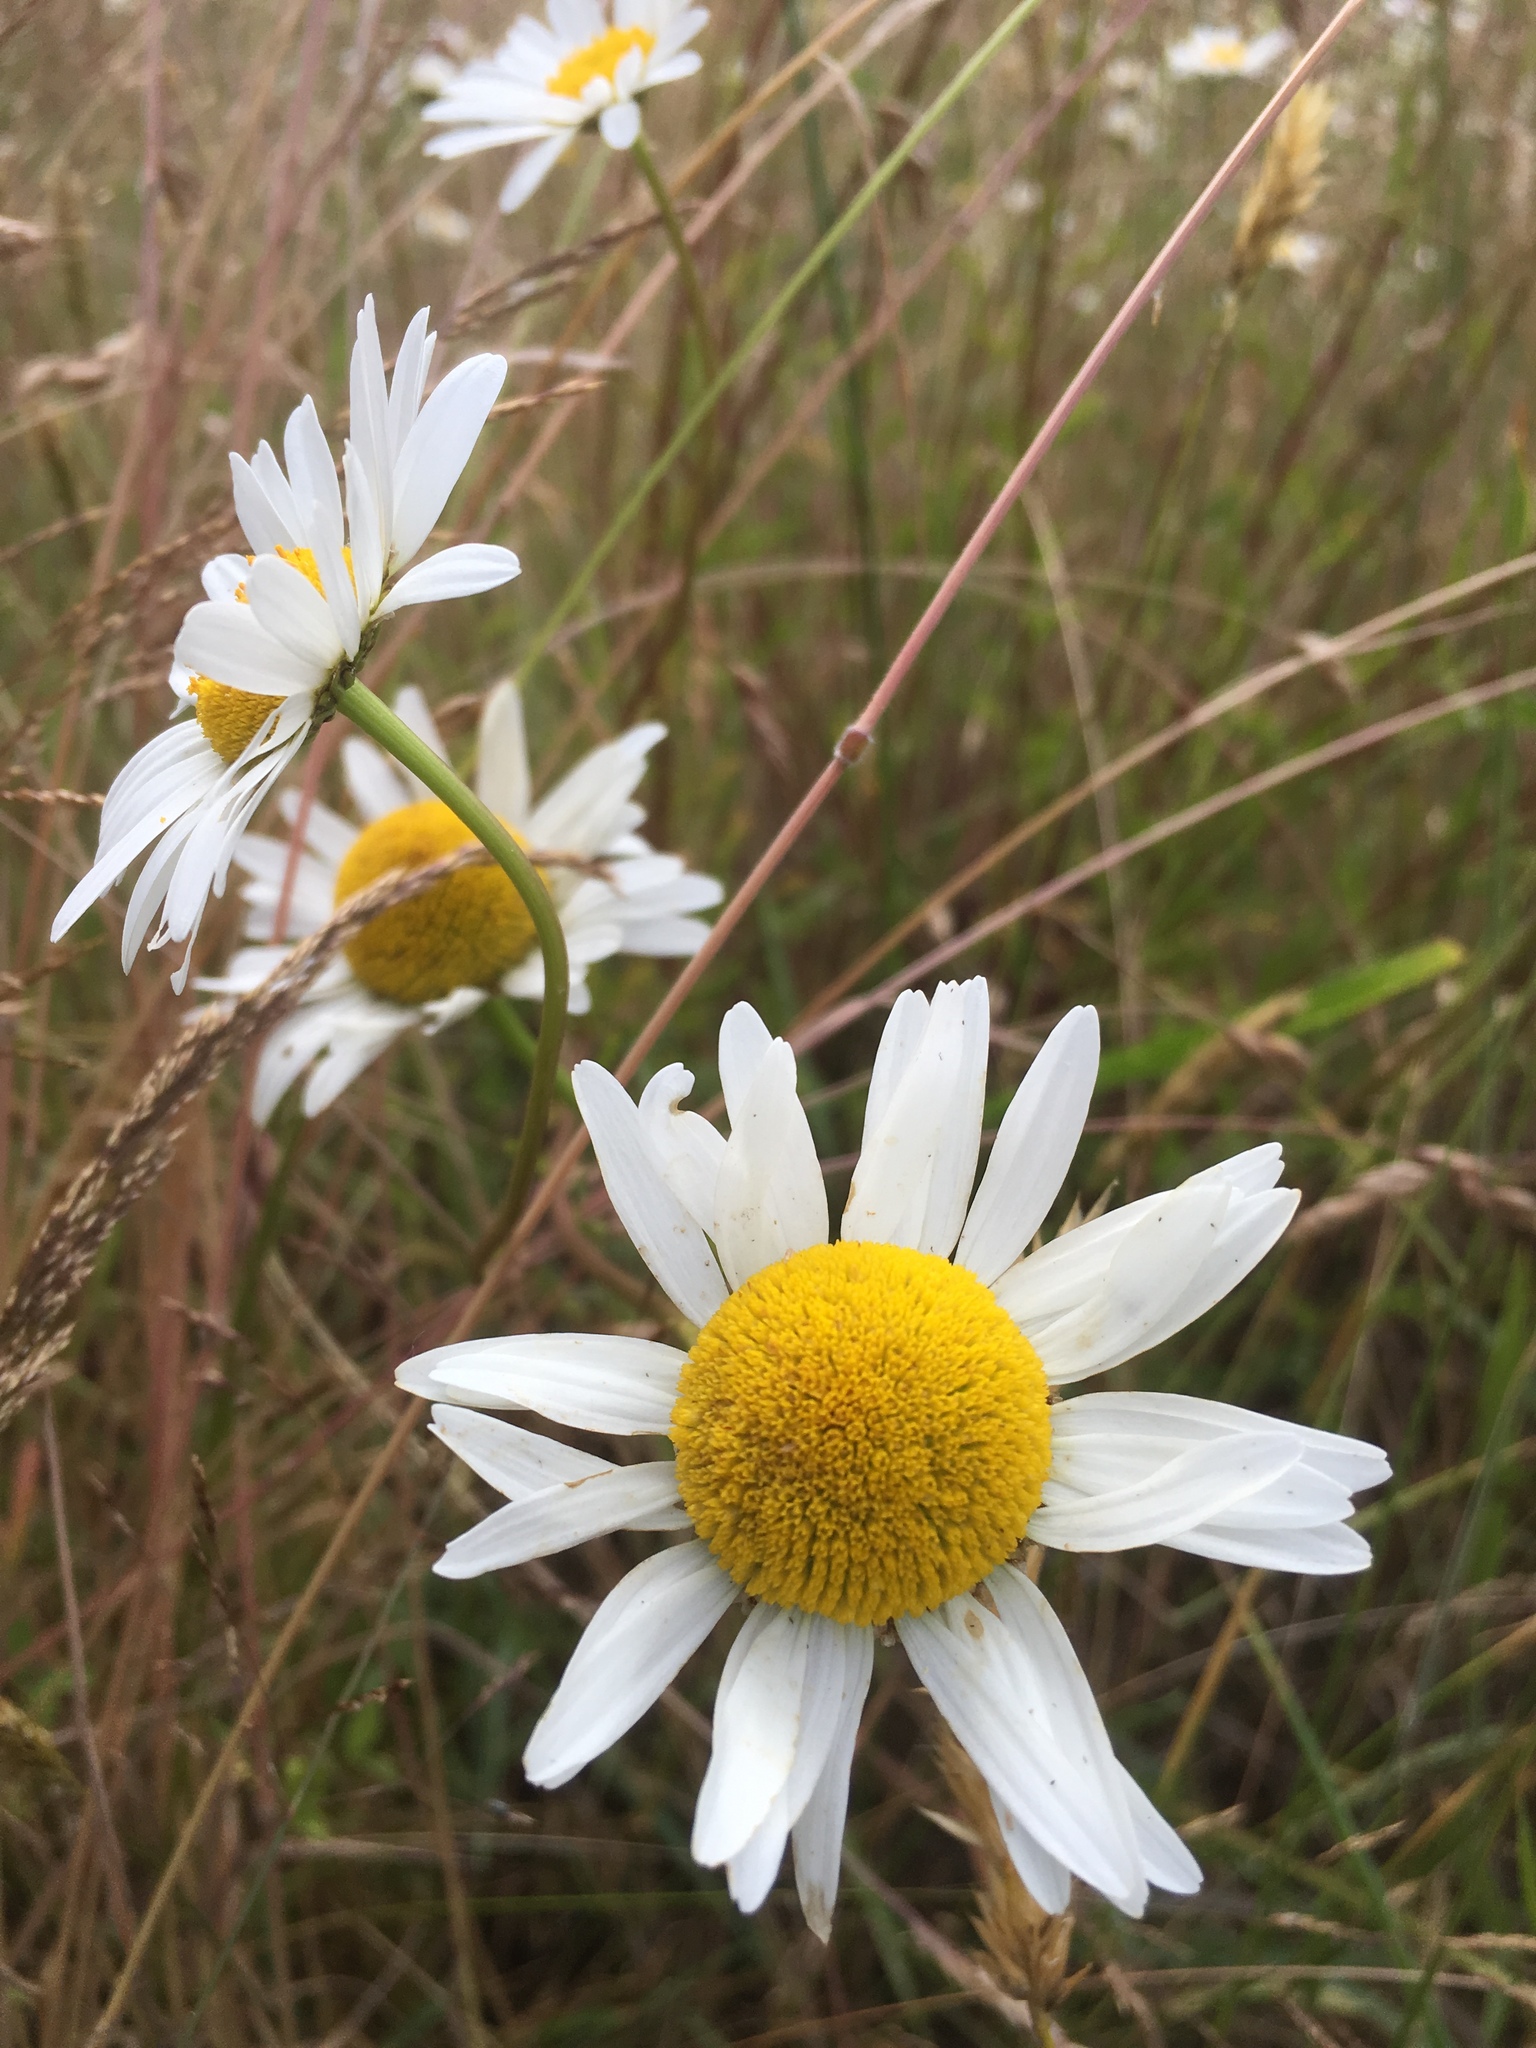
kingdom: Plantae
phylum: Tracheophyta
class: Magnoliopsida
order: Asterales
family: Asteraceae
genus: Leucanthemum
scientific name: Leucanthemum vulgare
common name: Oxeye daisy
